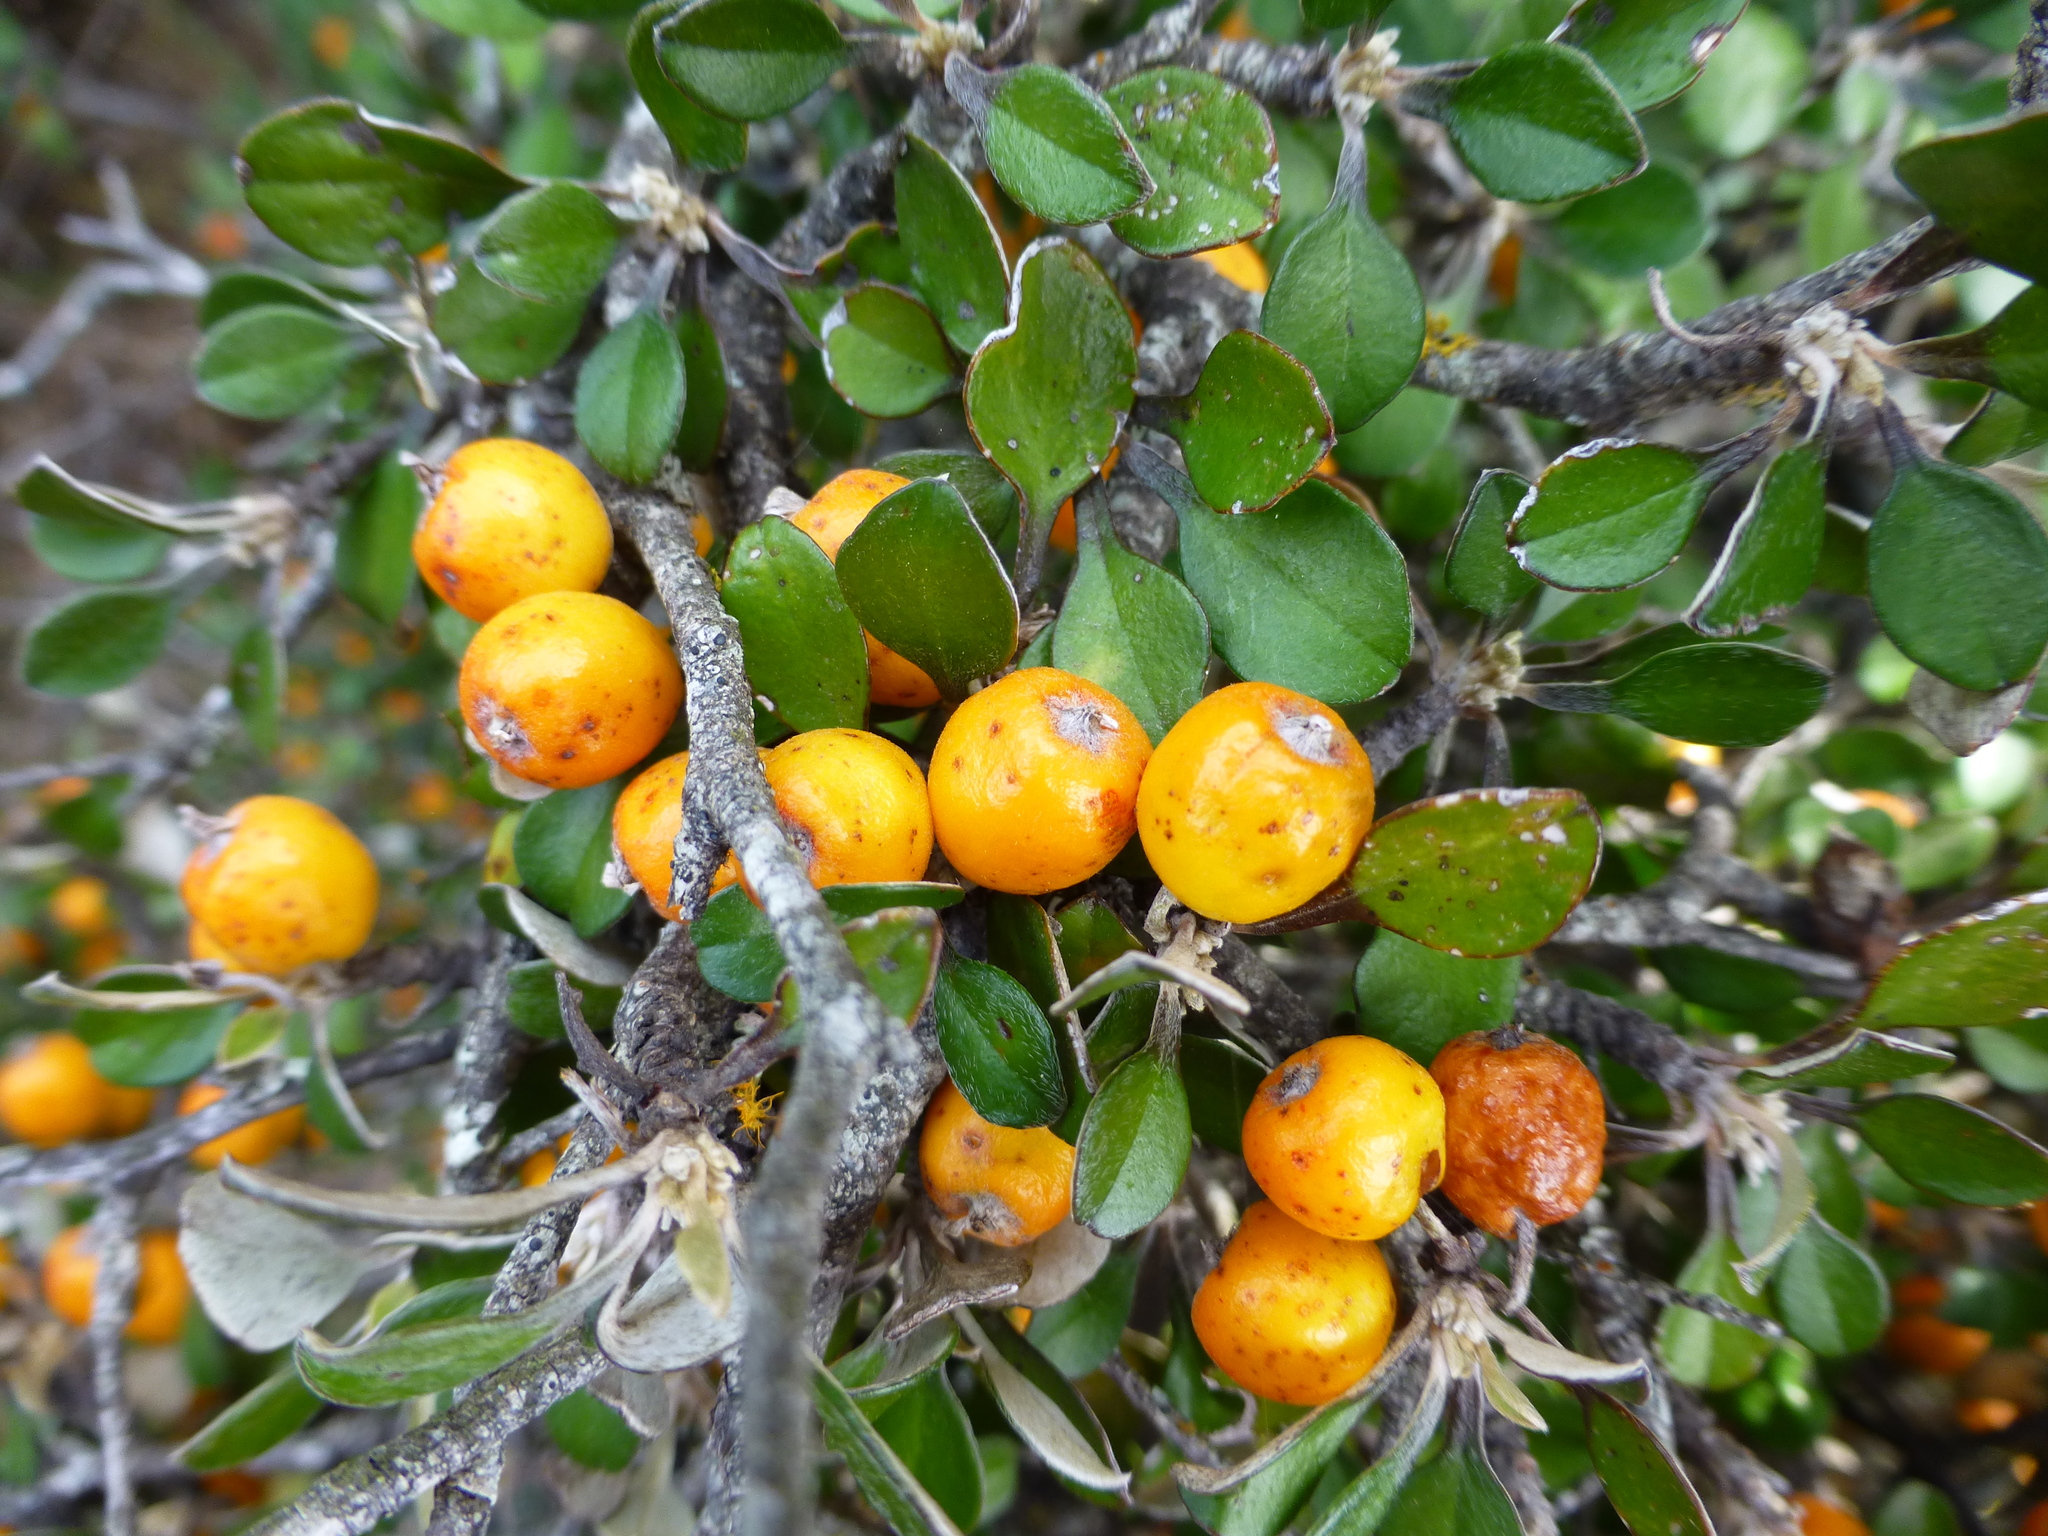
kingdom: Plantae
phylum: Tracheophyta
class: Magnoliopsida
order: Asterales
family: Argophyllaceae
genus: Corokia
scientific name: Corokia cotoneaster
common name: Wire nettingbush
